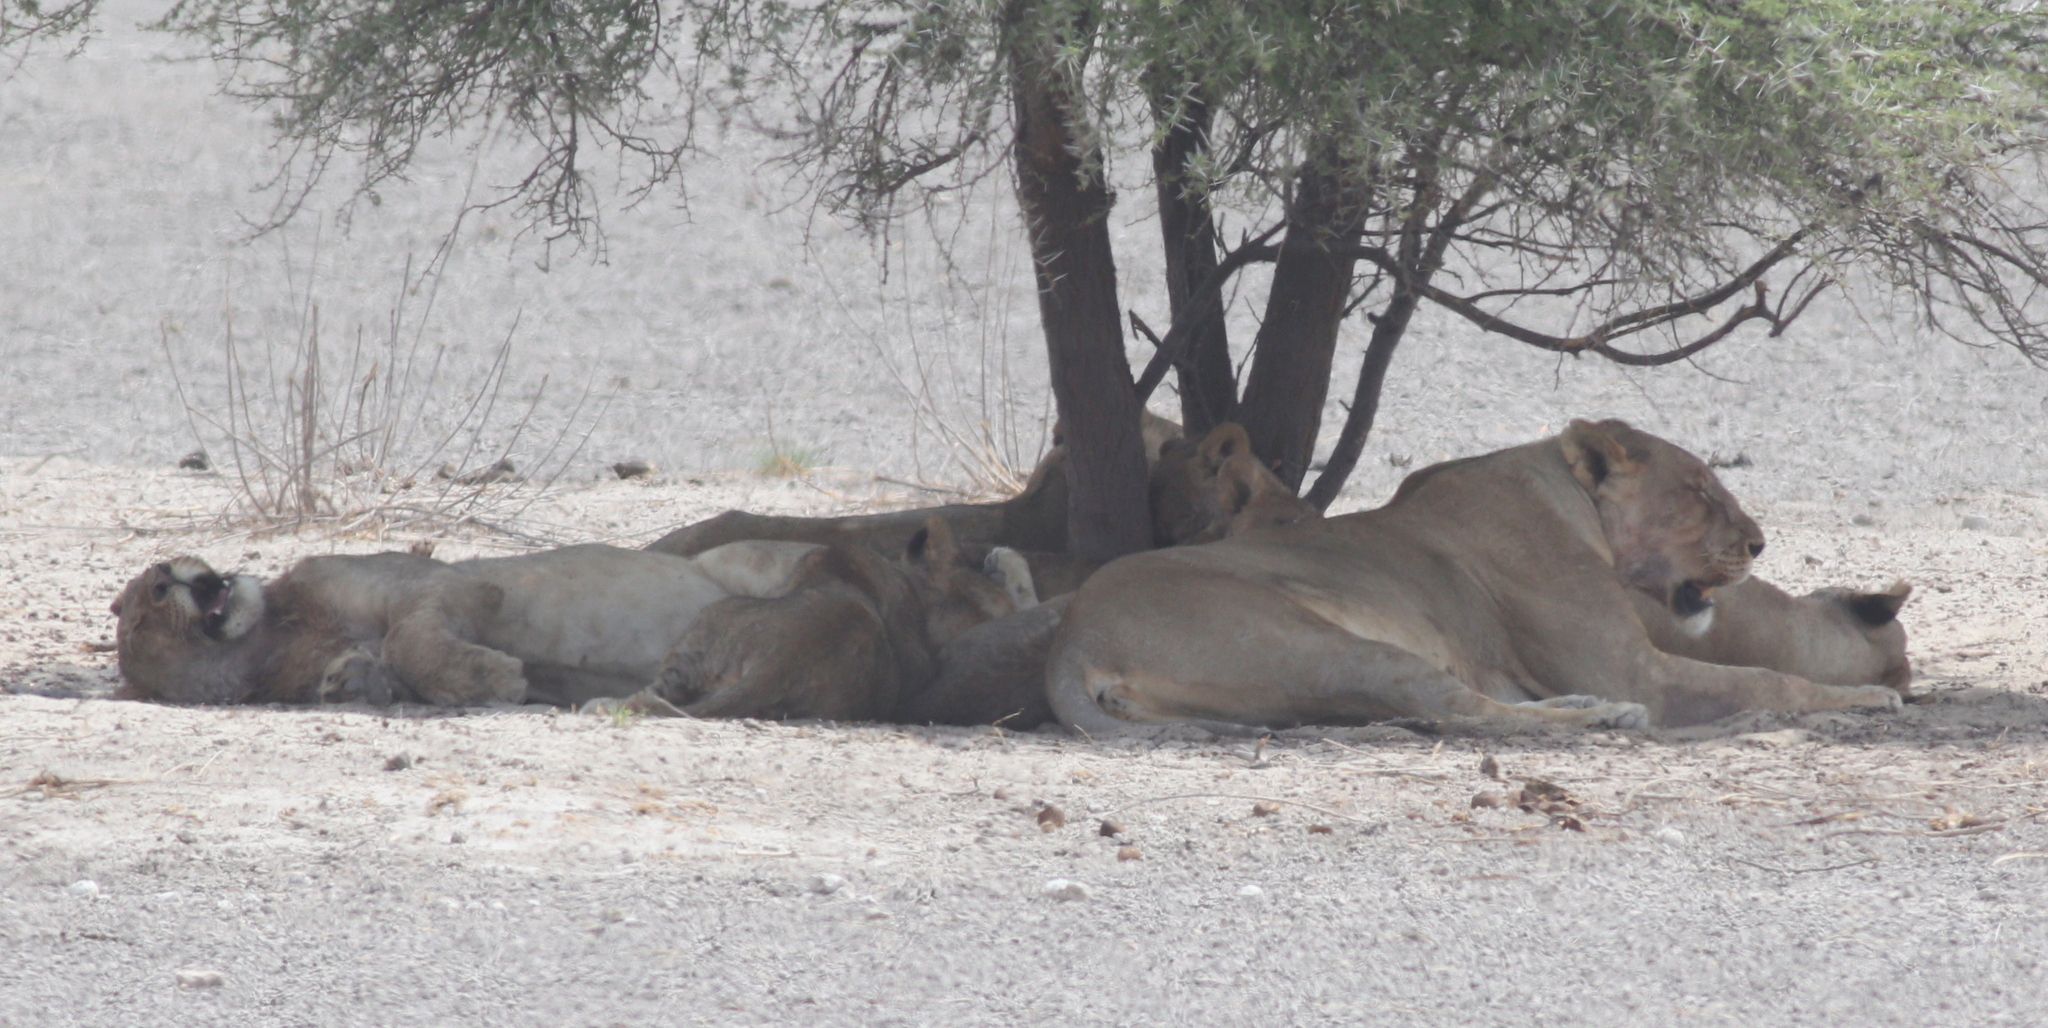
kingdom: Animalia
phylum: Chordata
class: Mammalia
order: Carnivora
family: Felidae
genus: Panthera
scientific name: Panthera leo
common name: Lion
